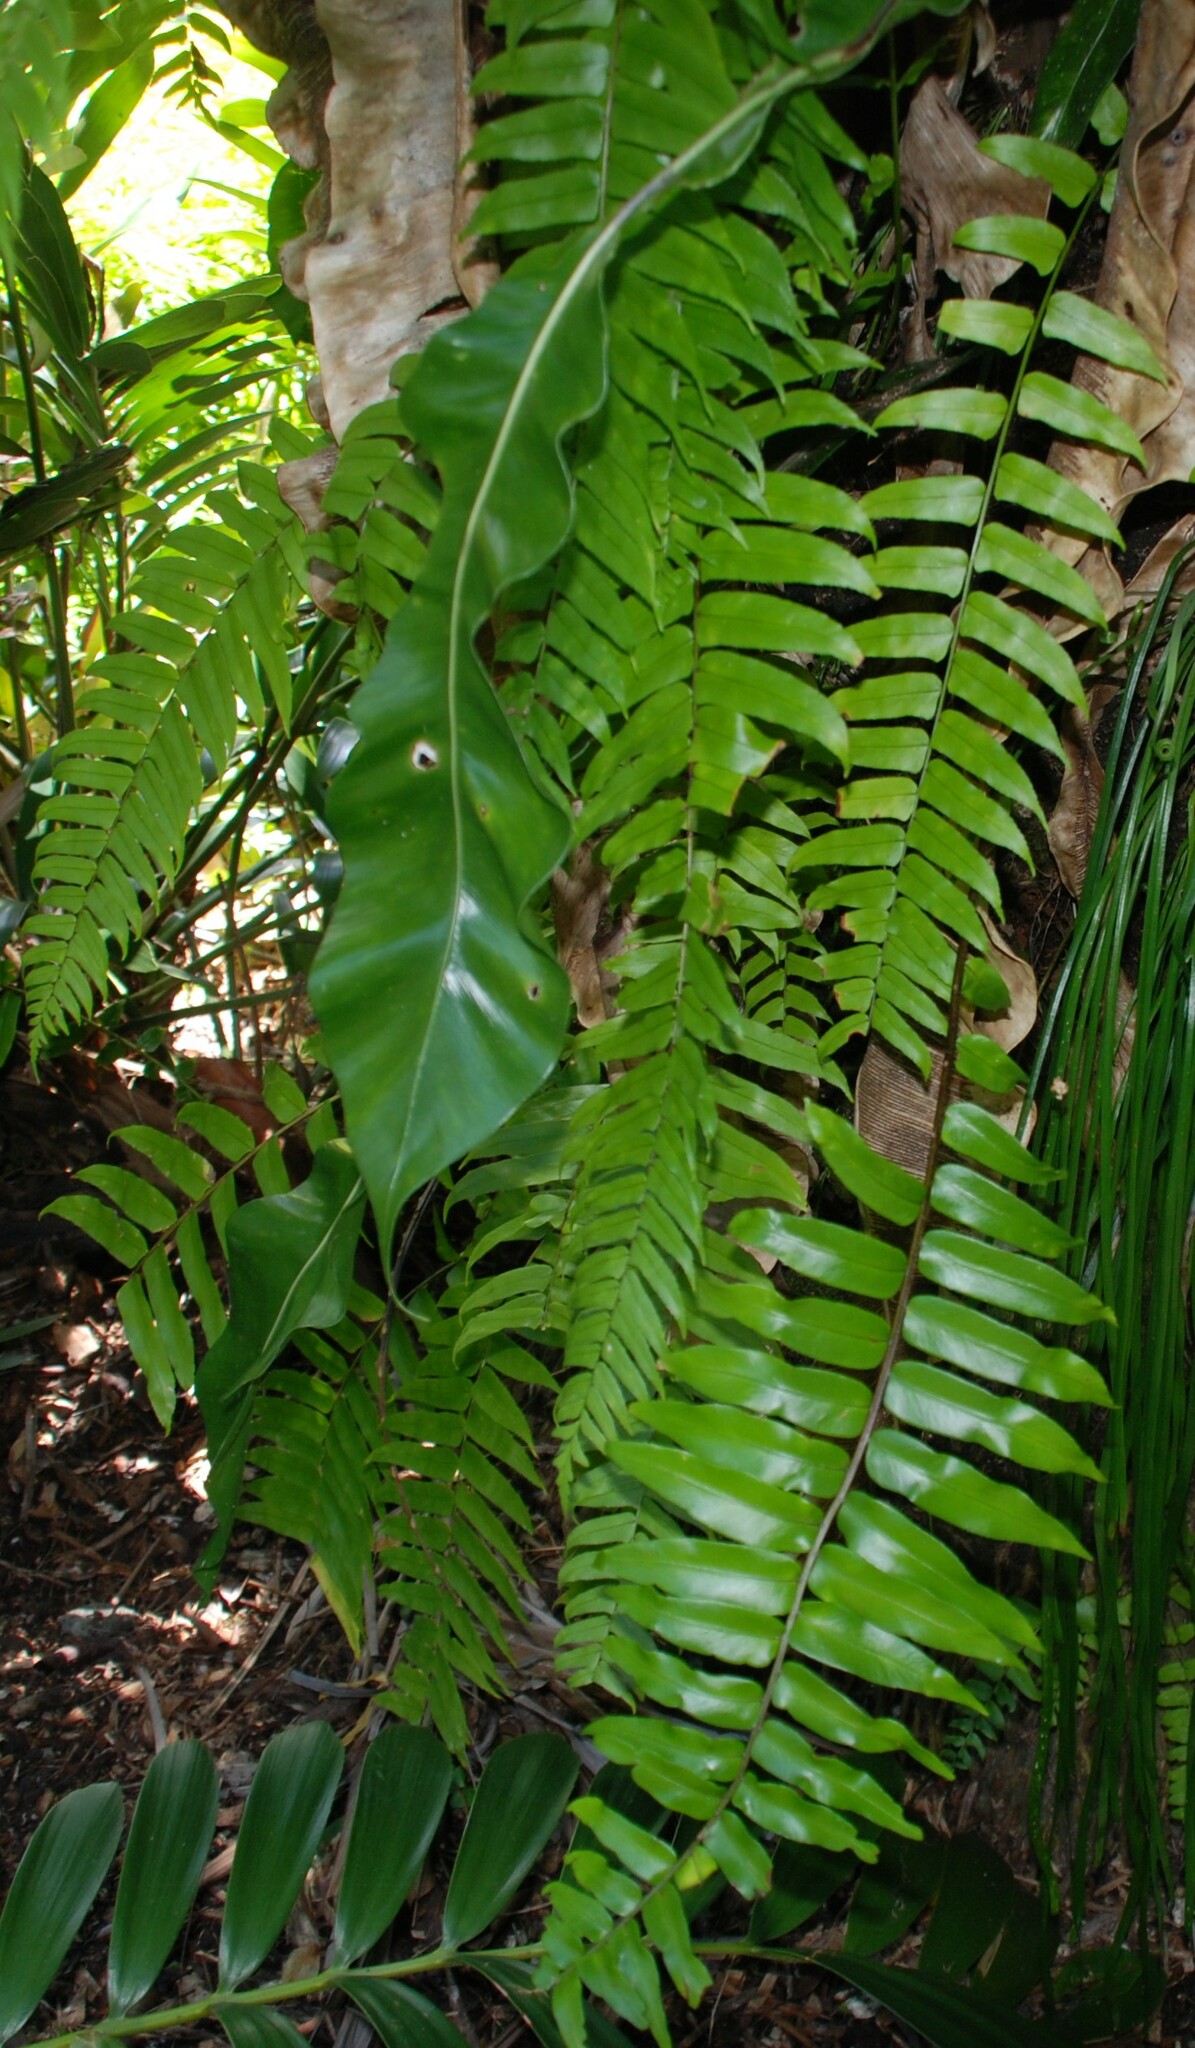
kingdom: Plantae
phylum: Tracheophyta
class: Polypodiopsida
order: Polypodiales
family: Nephrolepidaceae
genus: Nephrolepis
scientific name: Nephrolepis acutifolia
